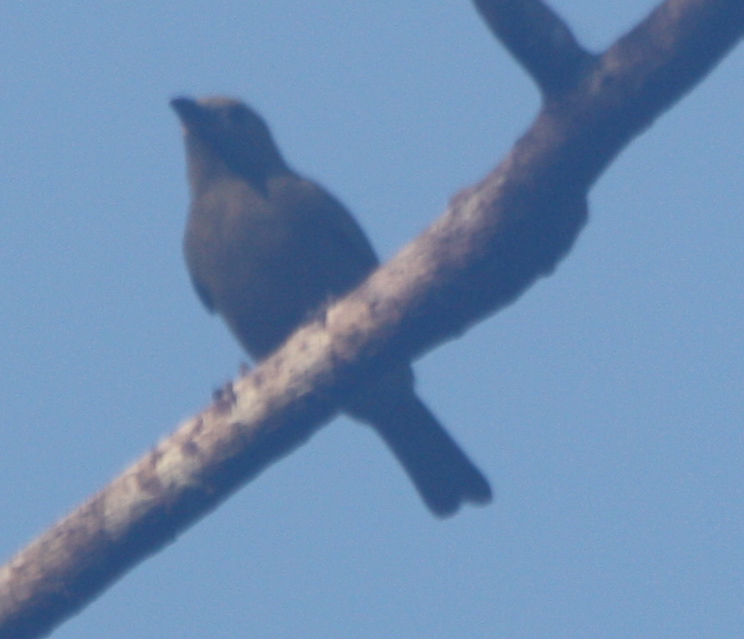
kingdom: Animalia
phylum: Chordata
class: Aves
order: Passeriformes
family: Thraupidae
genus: Thraupis
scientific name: Thraupis palmarum
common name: Palm tanager
